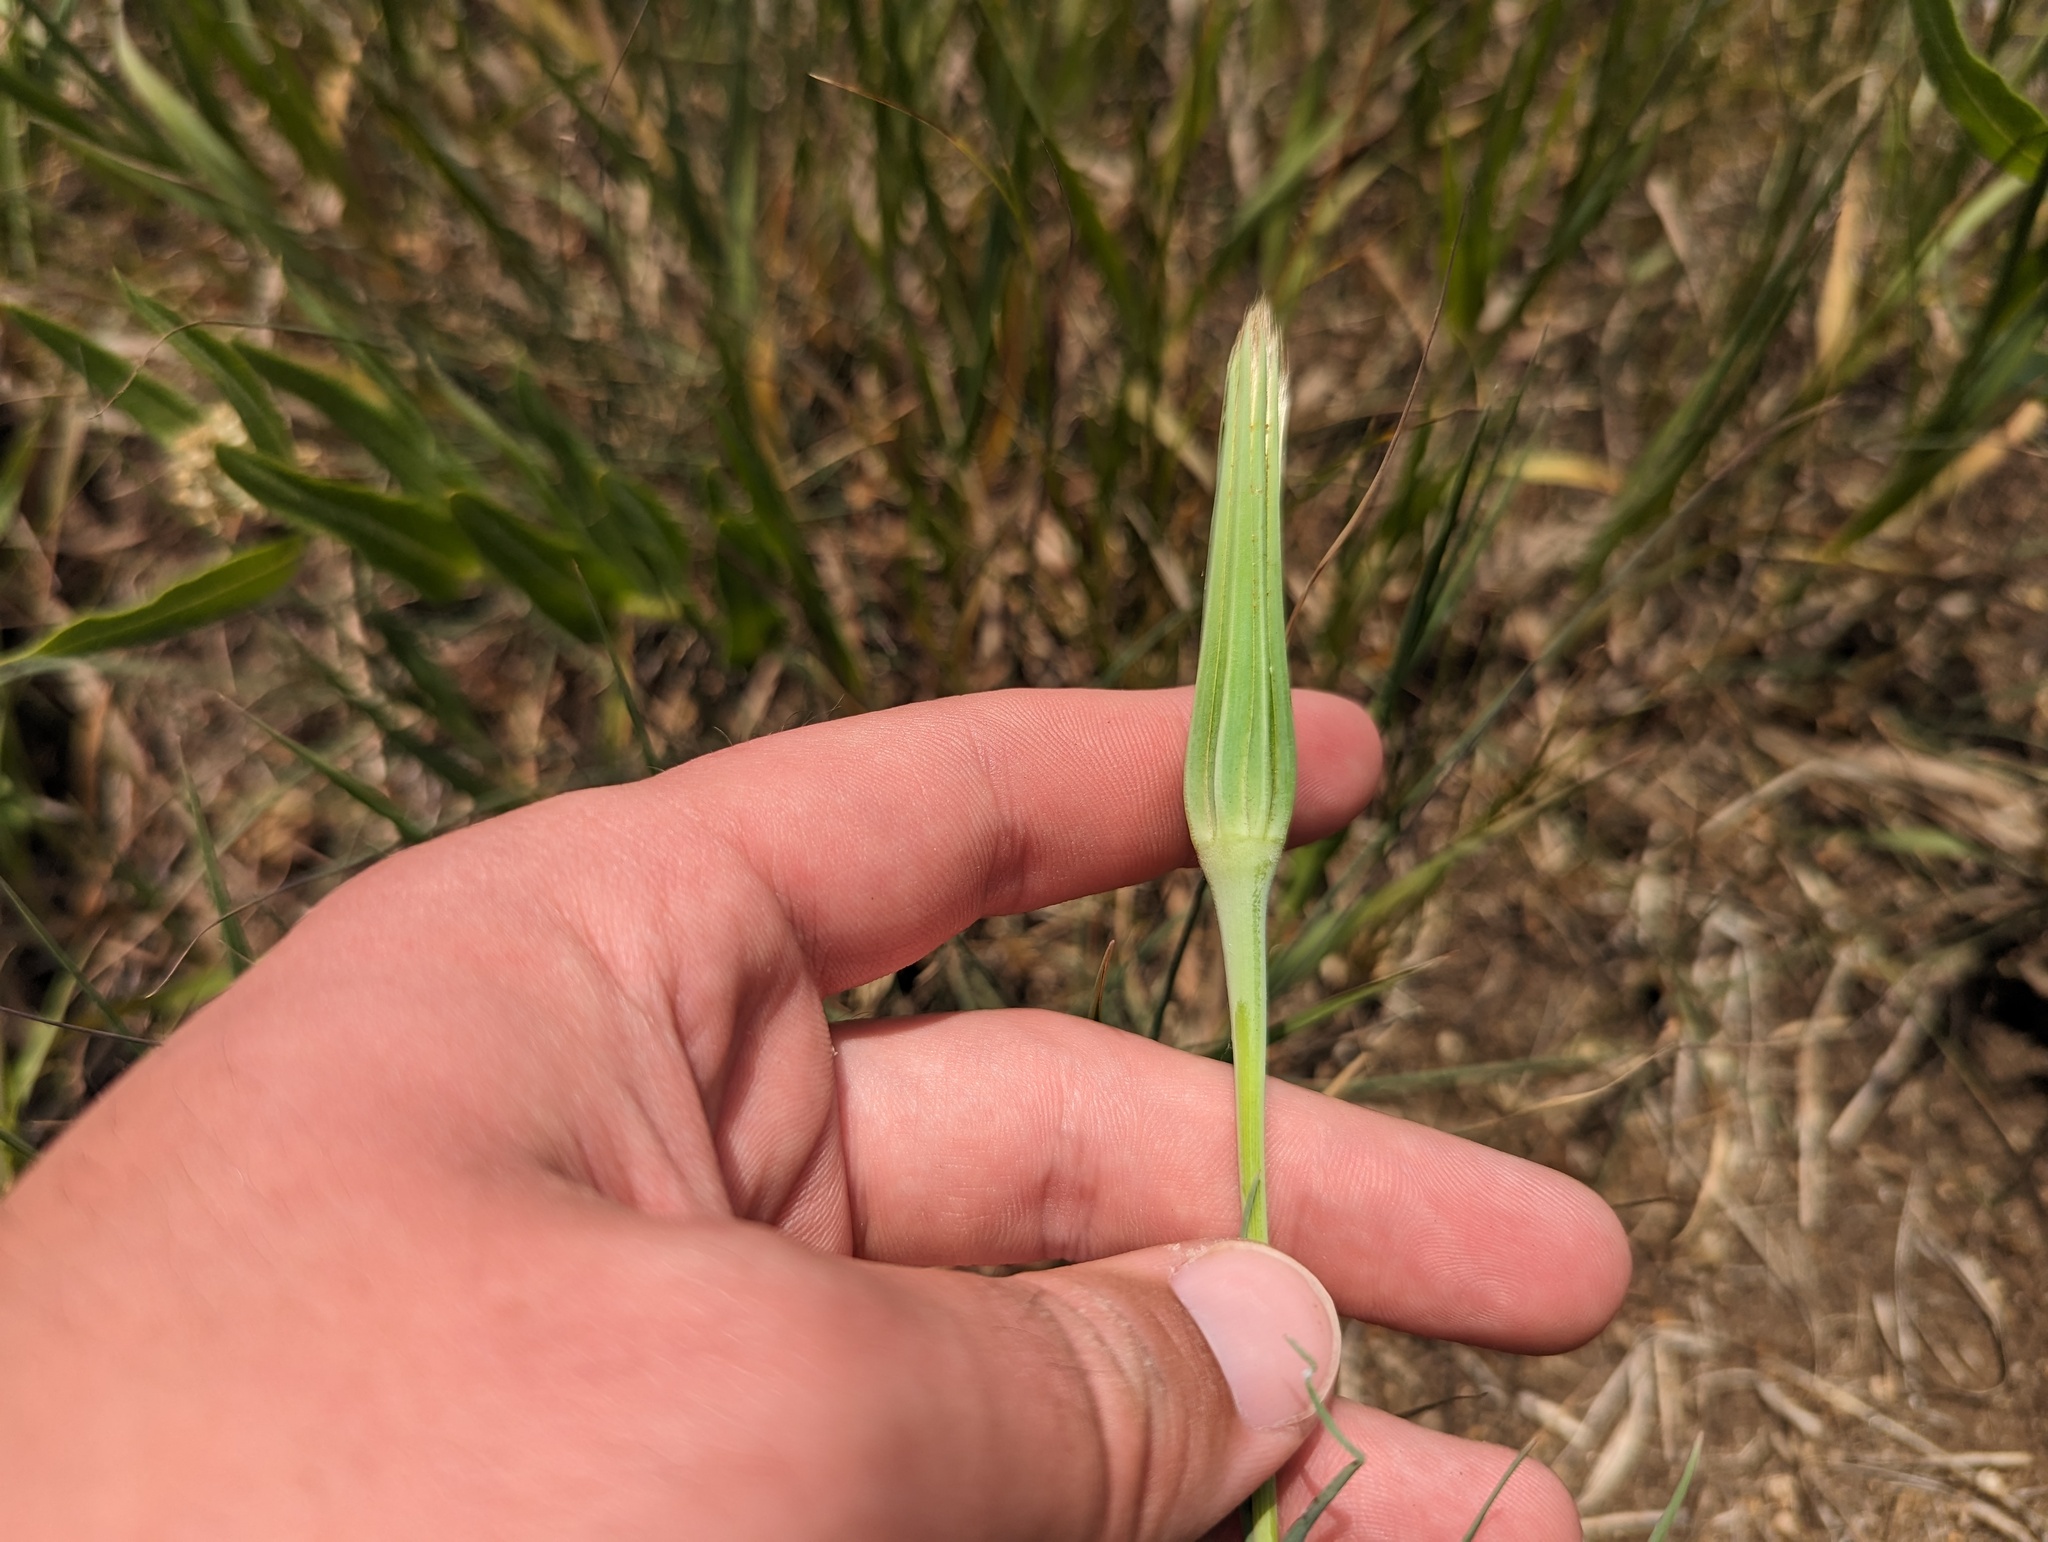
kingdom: Plantae
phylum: Tracheophyta
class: Magnoliopsida
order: Asterales
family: Asteraceae
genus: Tragopogon
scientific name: Tragopogon dubius
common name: Yellow salsify
